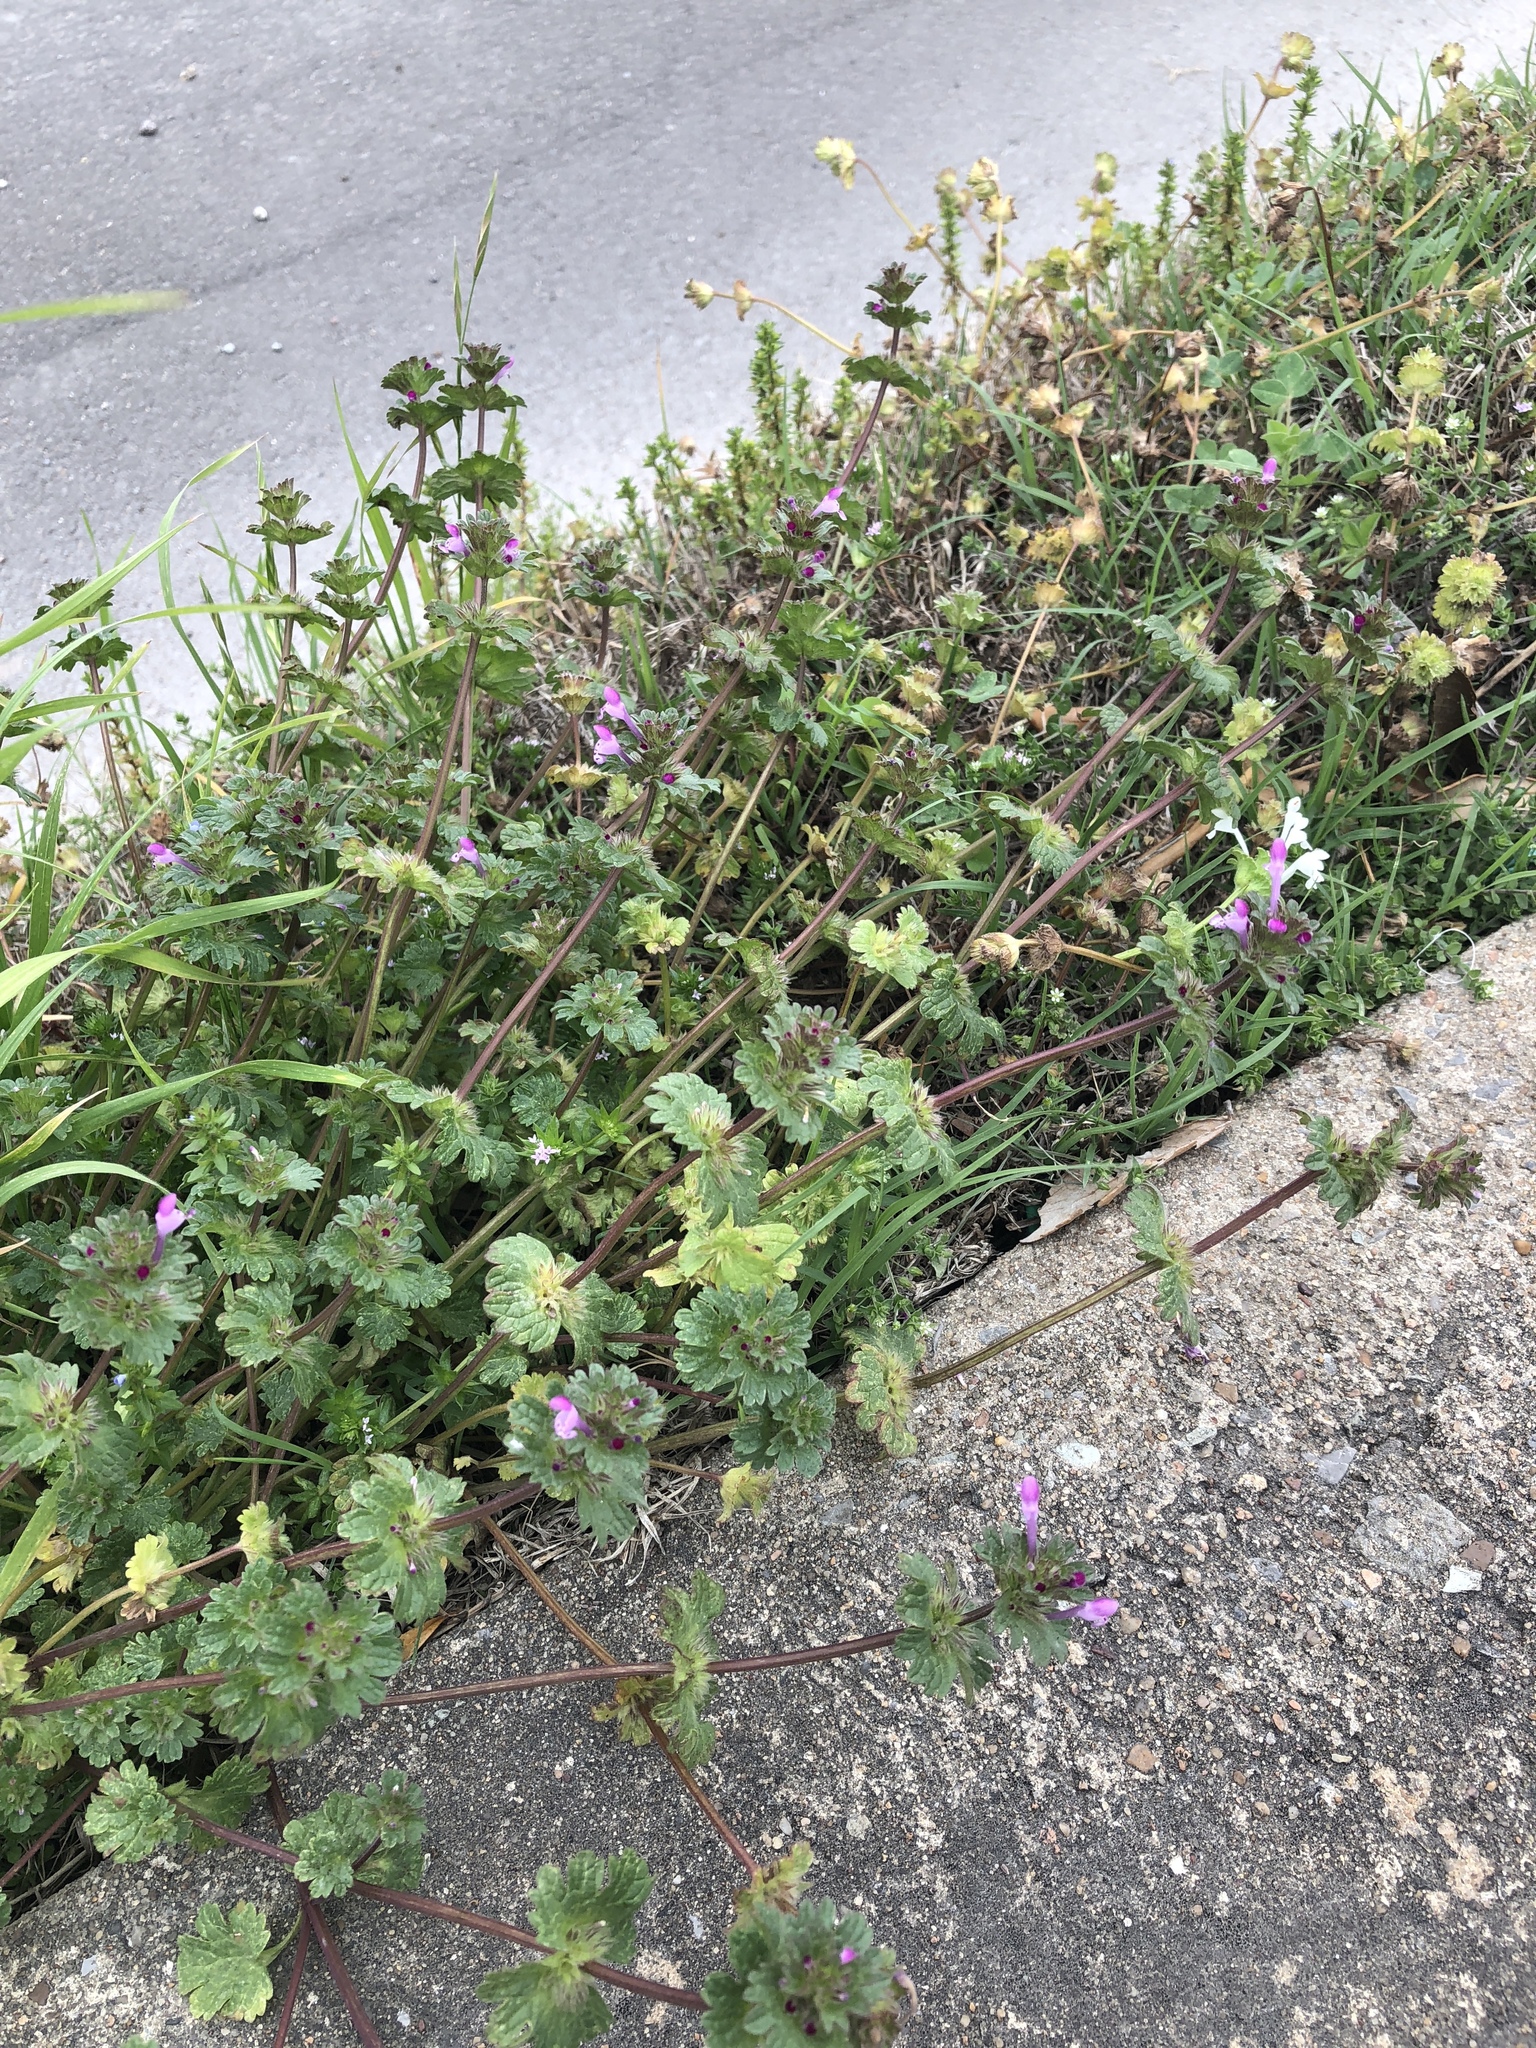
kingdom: Plantae
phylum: Tracheophyta
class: Magnoliopsida
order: Lamiales
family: Lamiaceae
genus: Lamium
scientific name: Lamium amplexicaule
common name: Henbit dead-nettle
